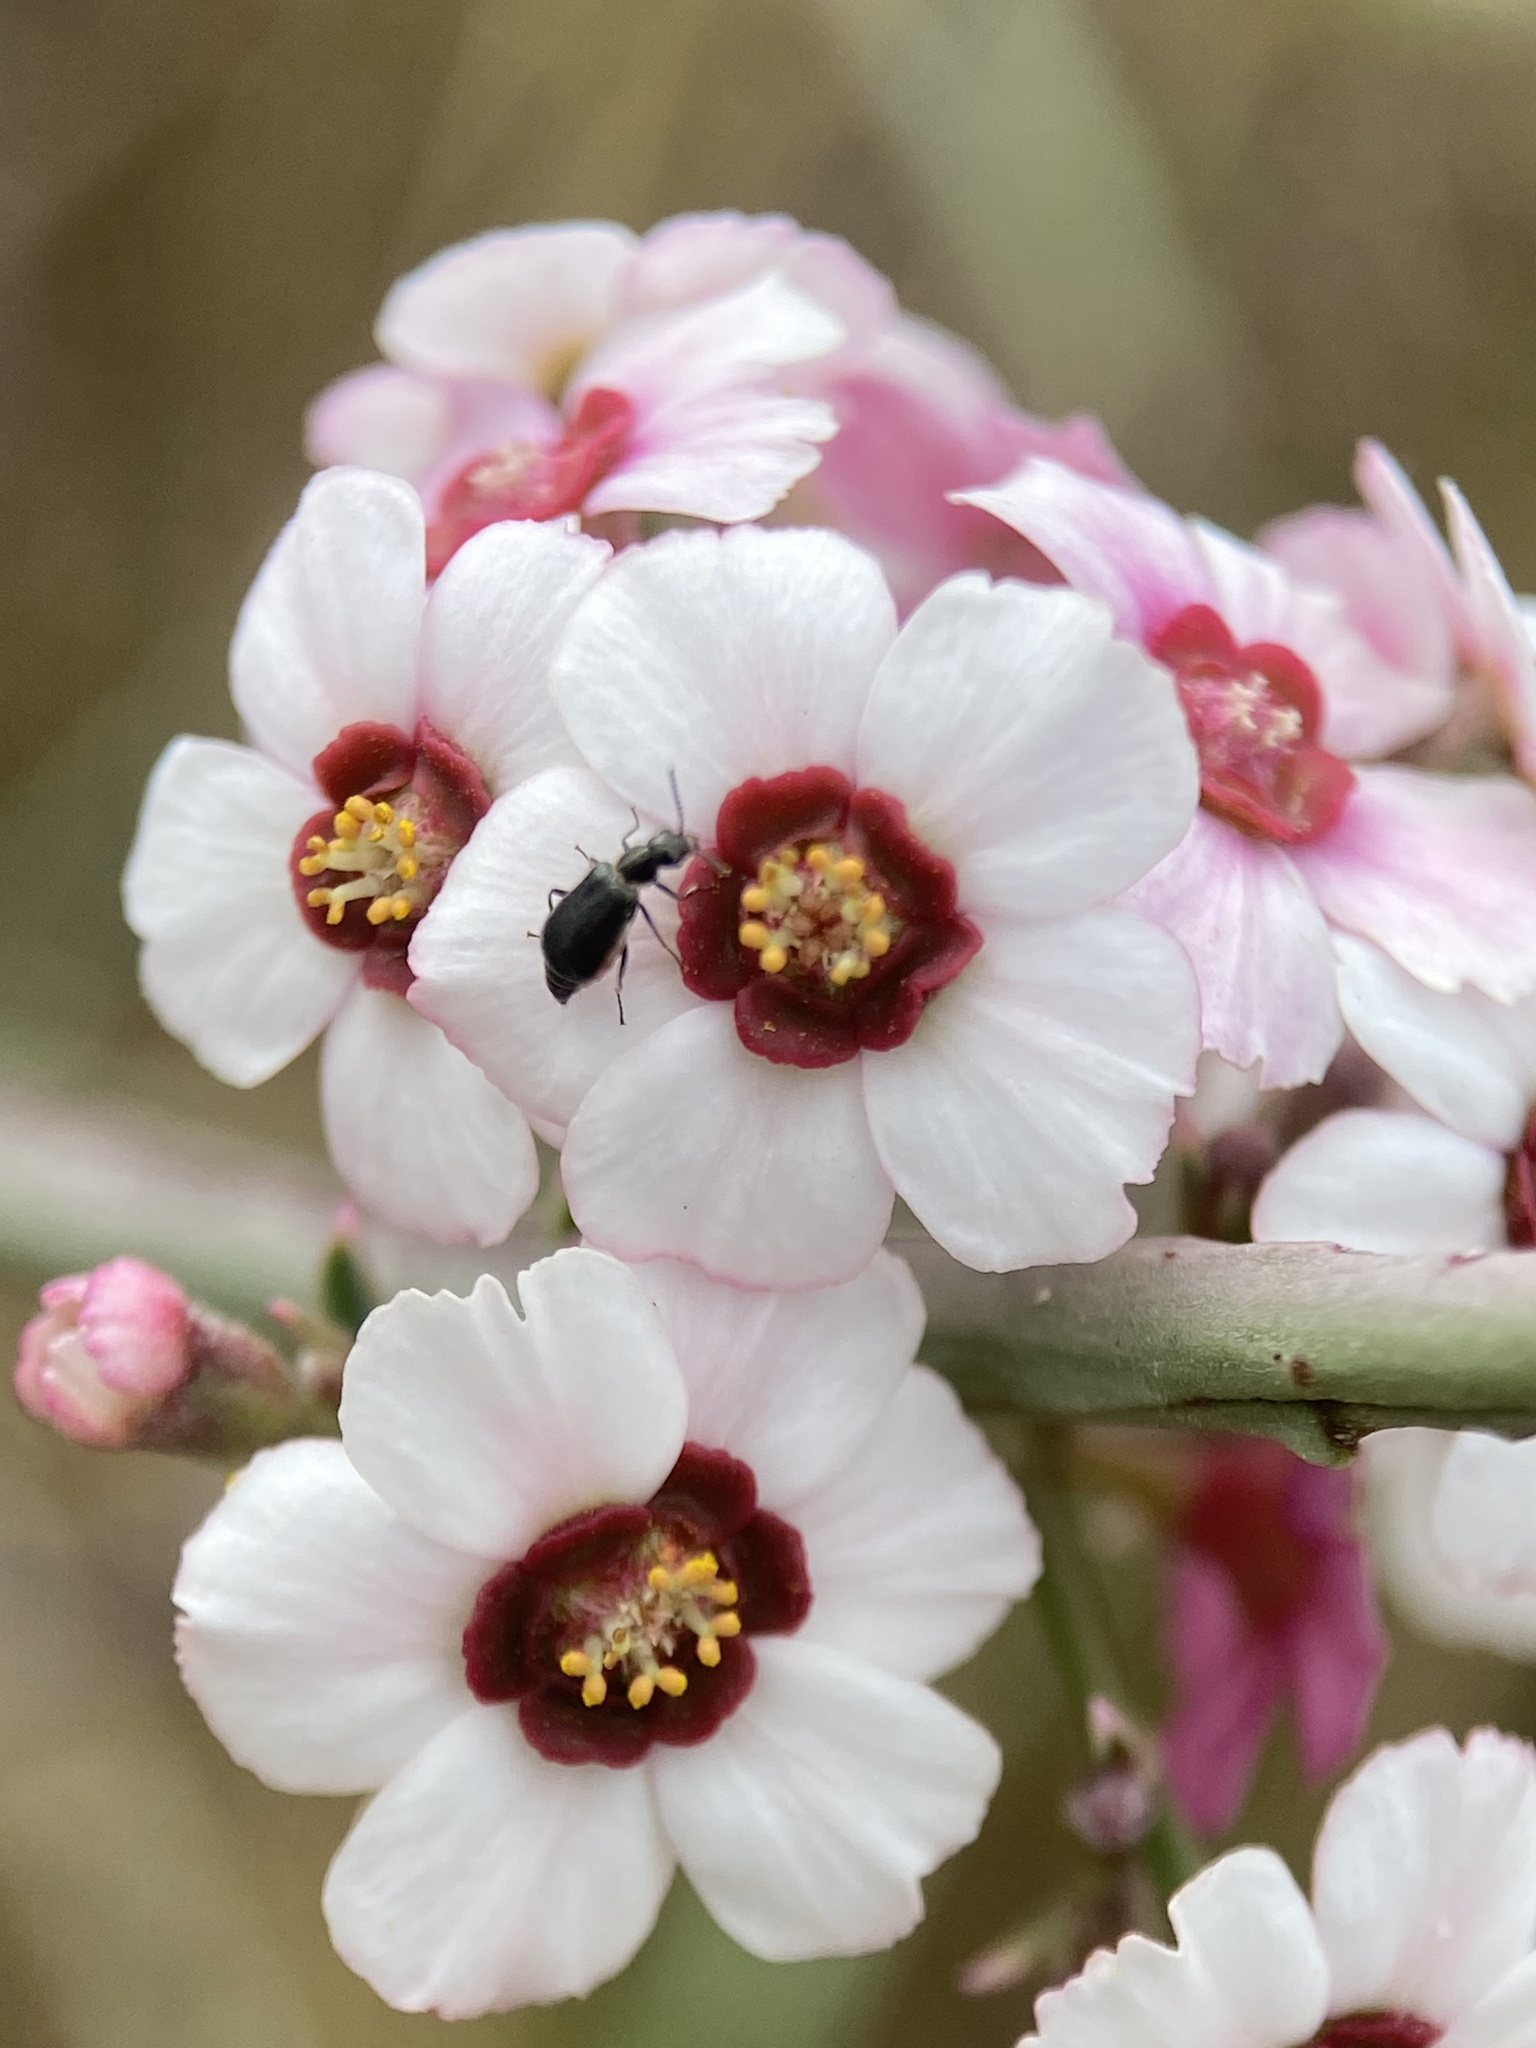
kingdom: Plantae
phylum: Tracheophyta
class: Magnoliopsida
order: Malpighiales
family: Euphorbiaceae
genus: Euphorbia
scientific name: Euphorbia xanti
